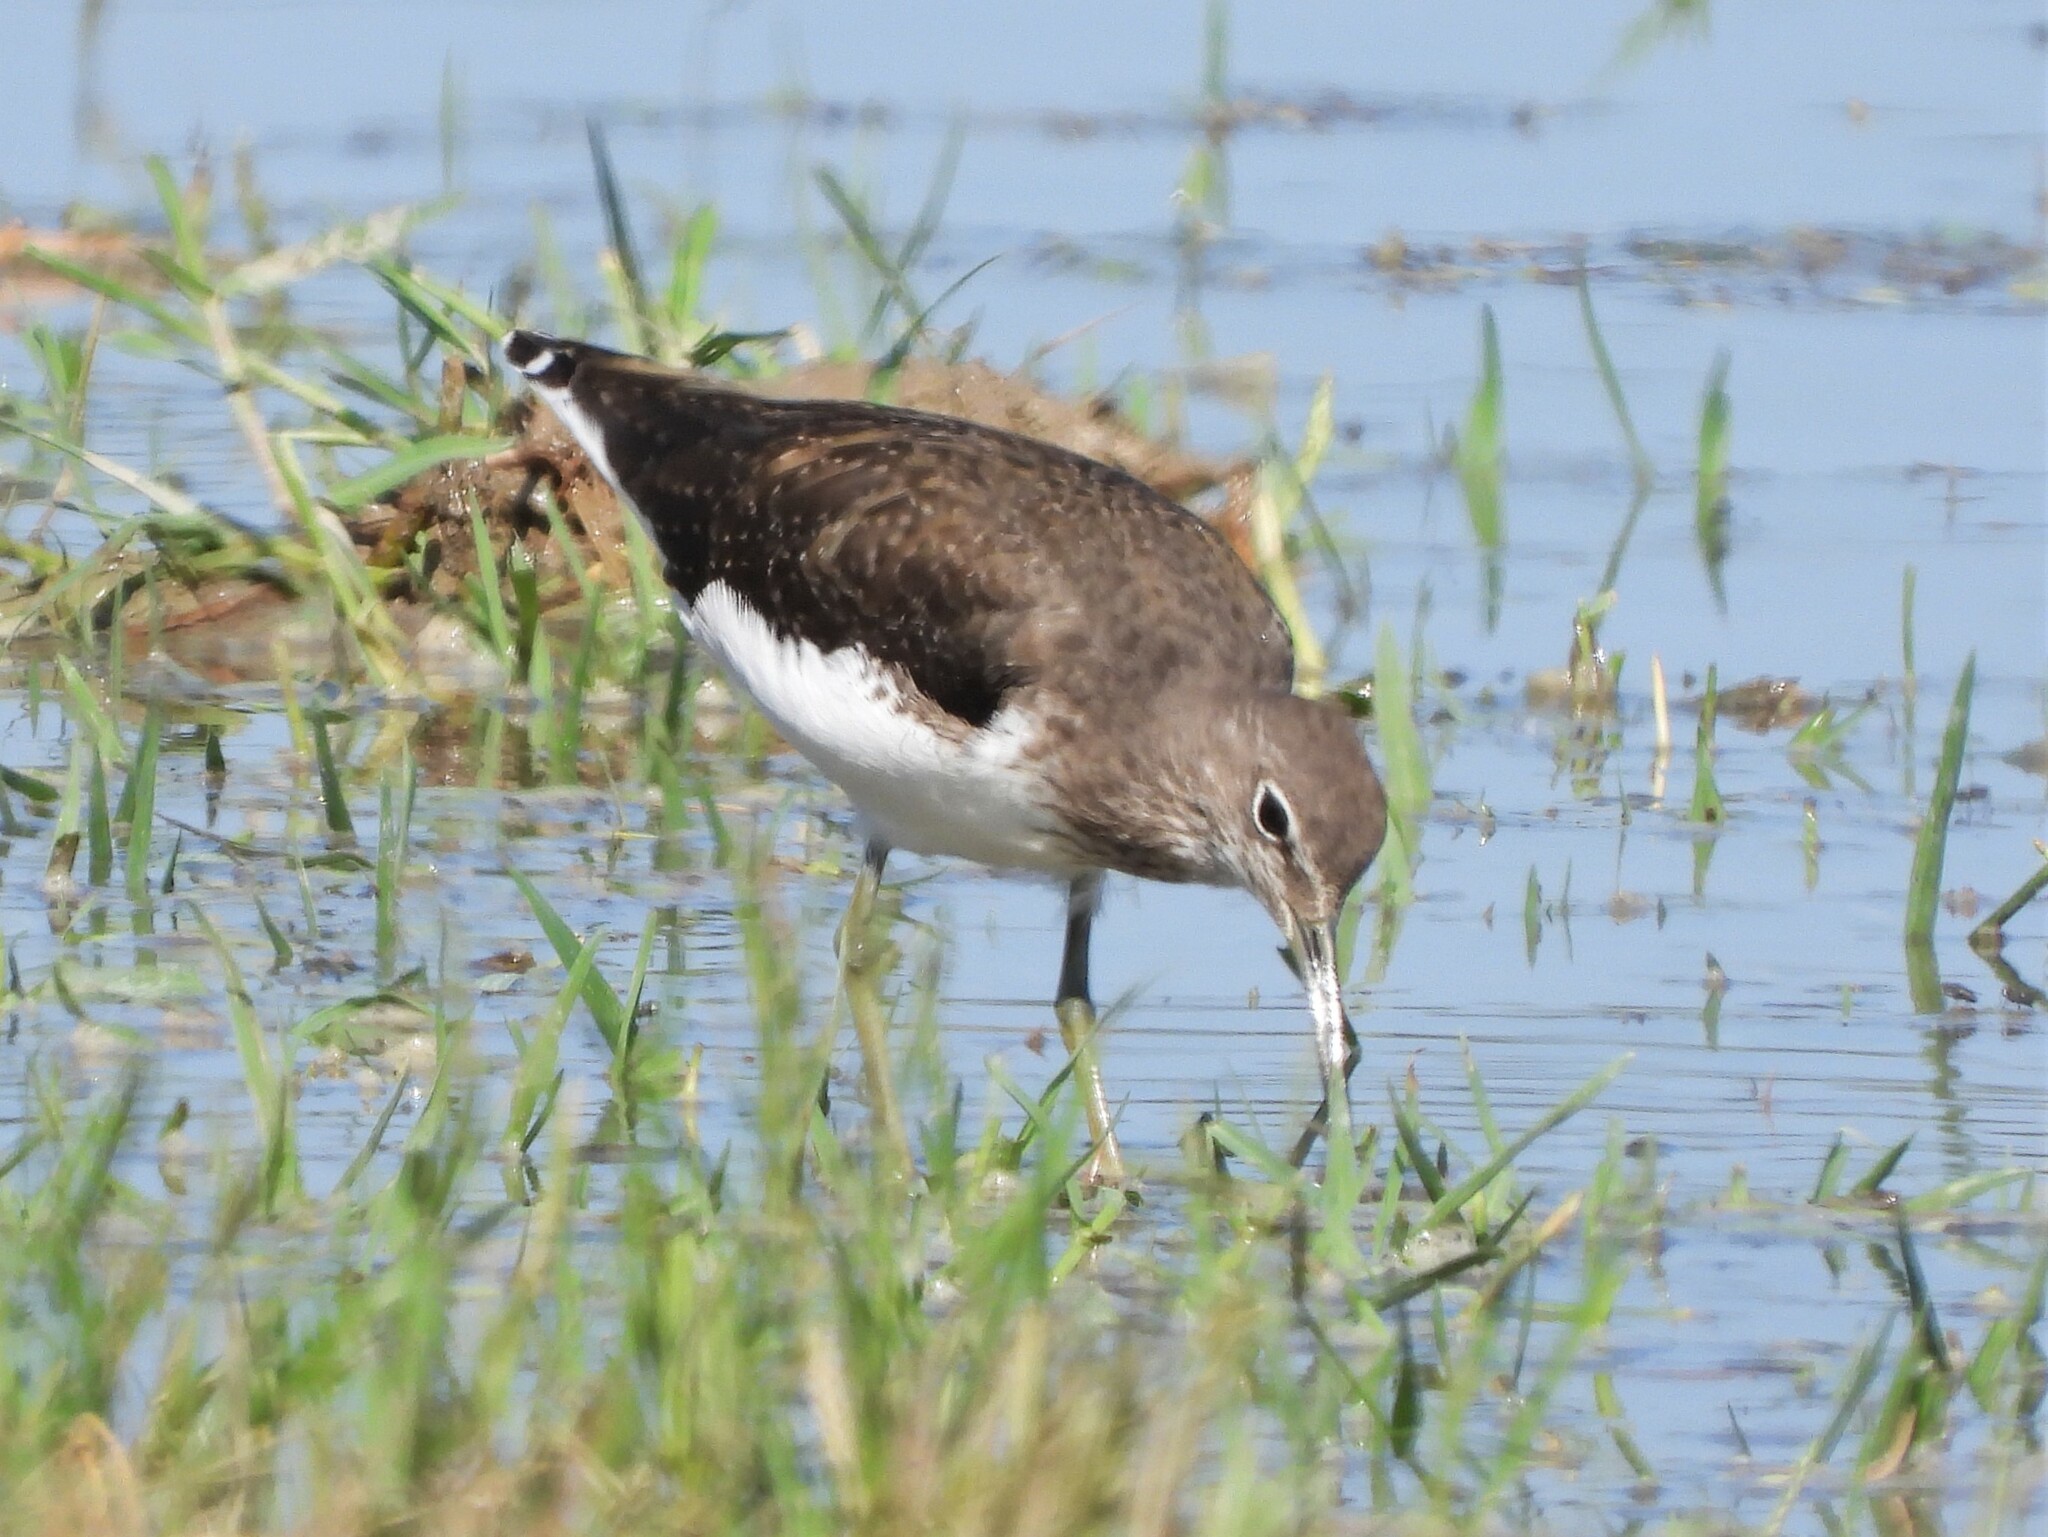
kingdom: Animalia
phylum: Chordata
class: Aves
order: Charadriiformes
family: Scolopacidae
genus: Tringa
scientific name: Tringa ochropus
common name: Green sandpiper
